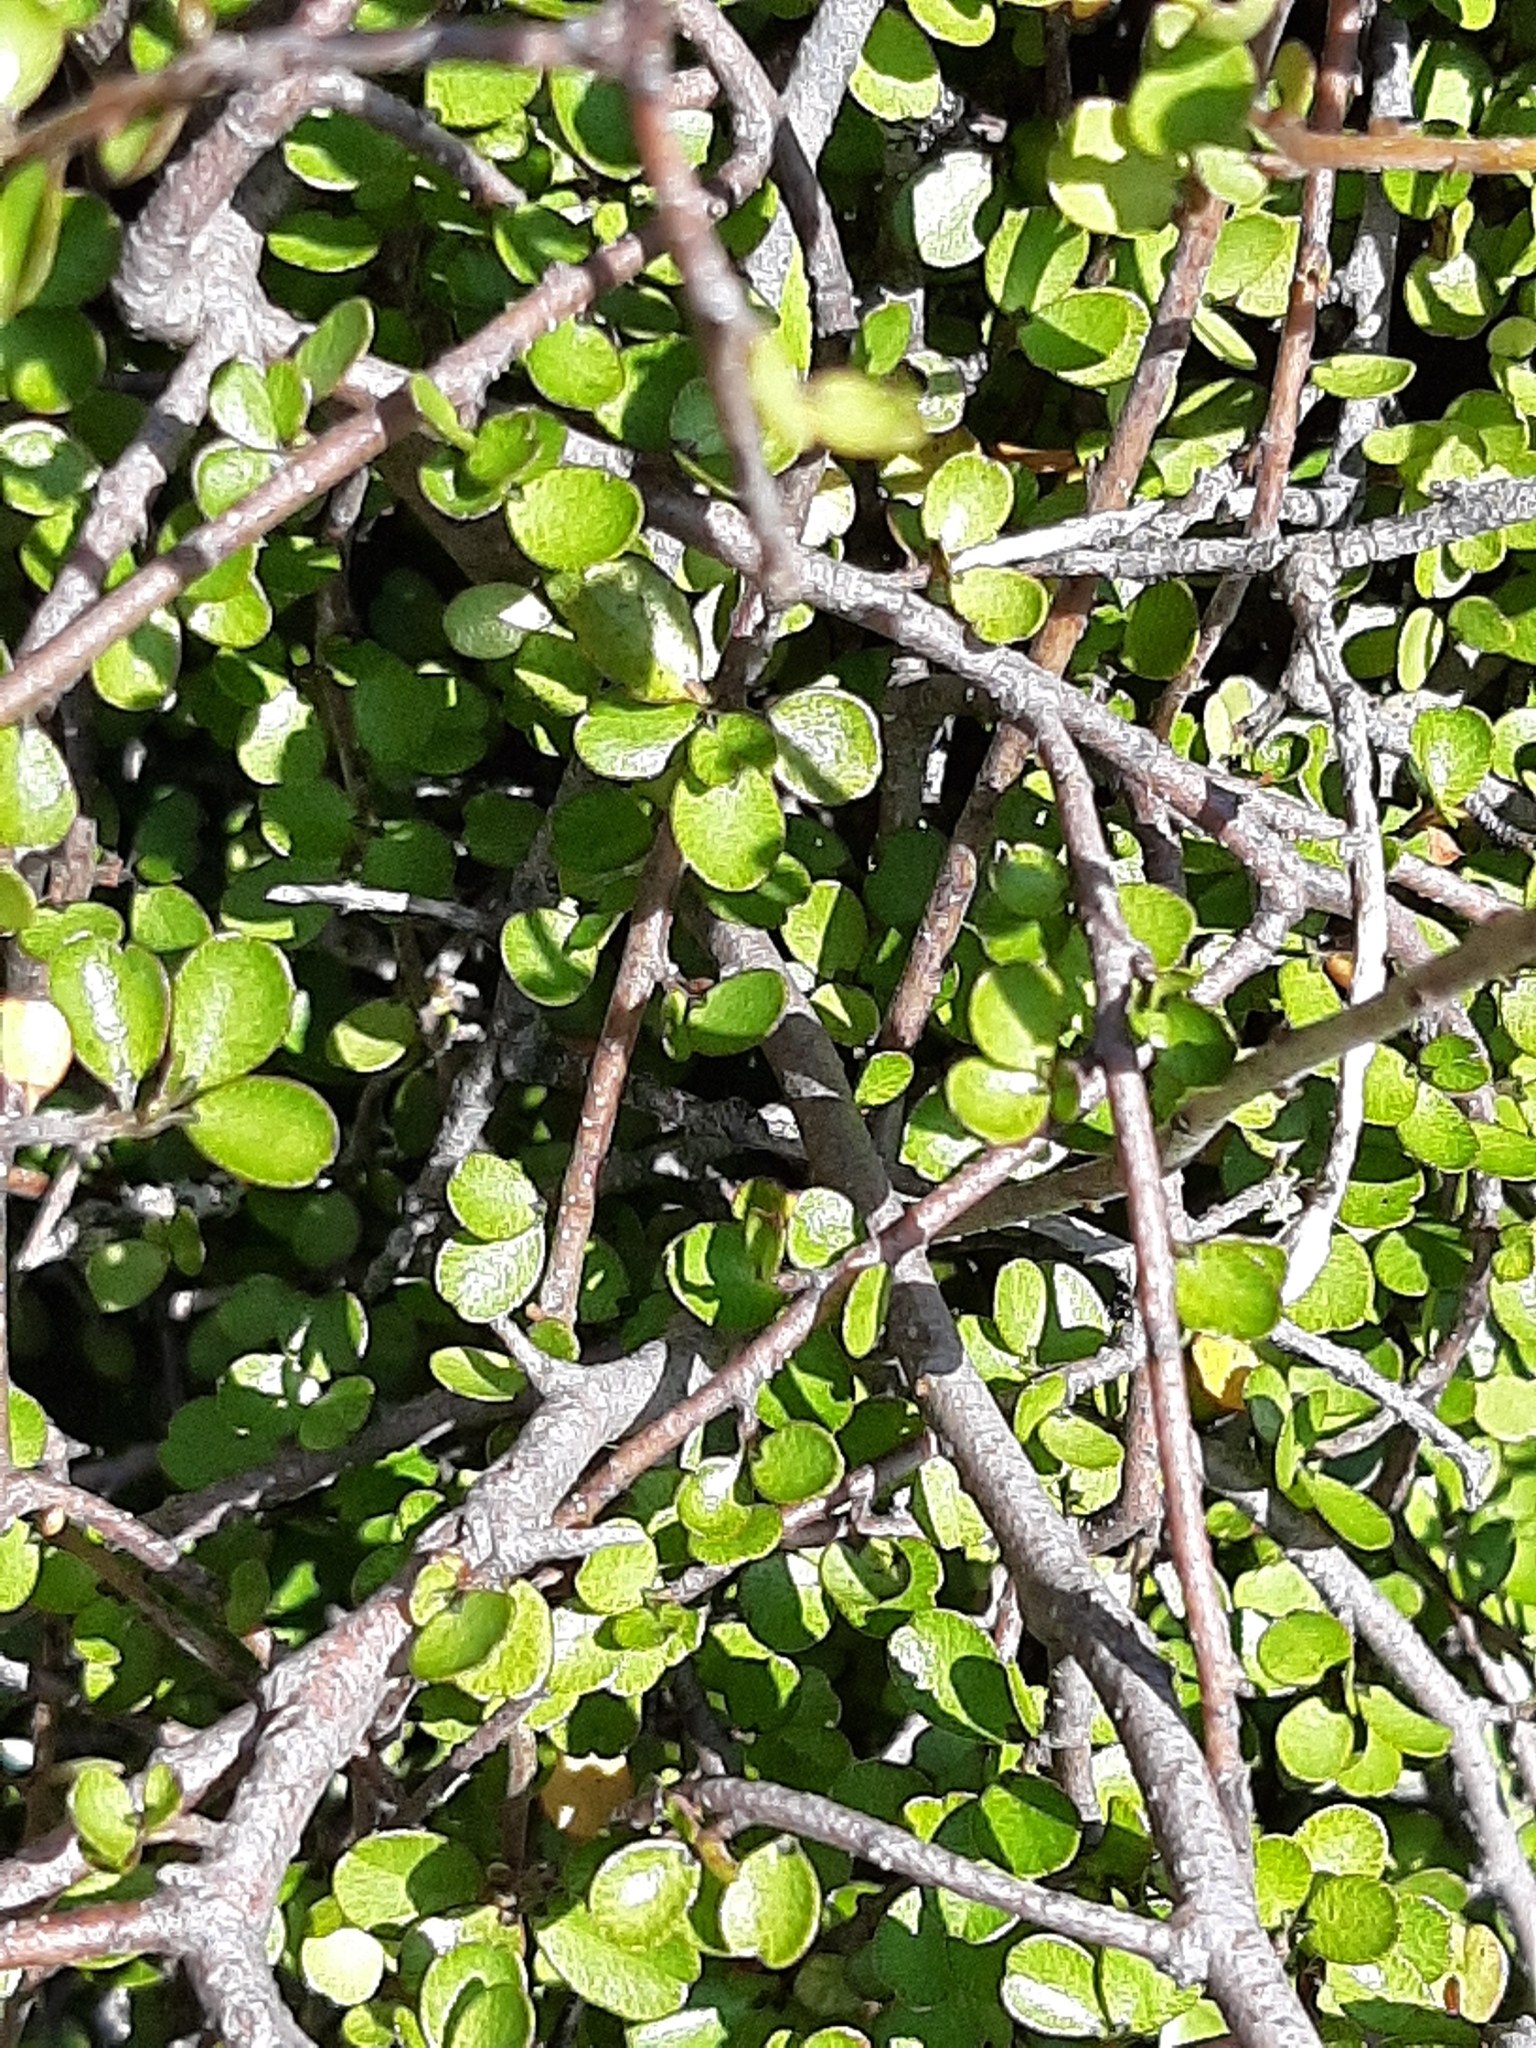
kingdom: Plantae
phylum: Tracheophyta
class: Magnoliopsida
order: Ericales
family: Primulaceae
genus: Myrsine
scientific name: Myrsine divaricata
